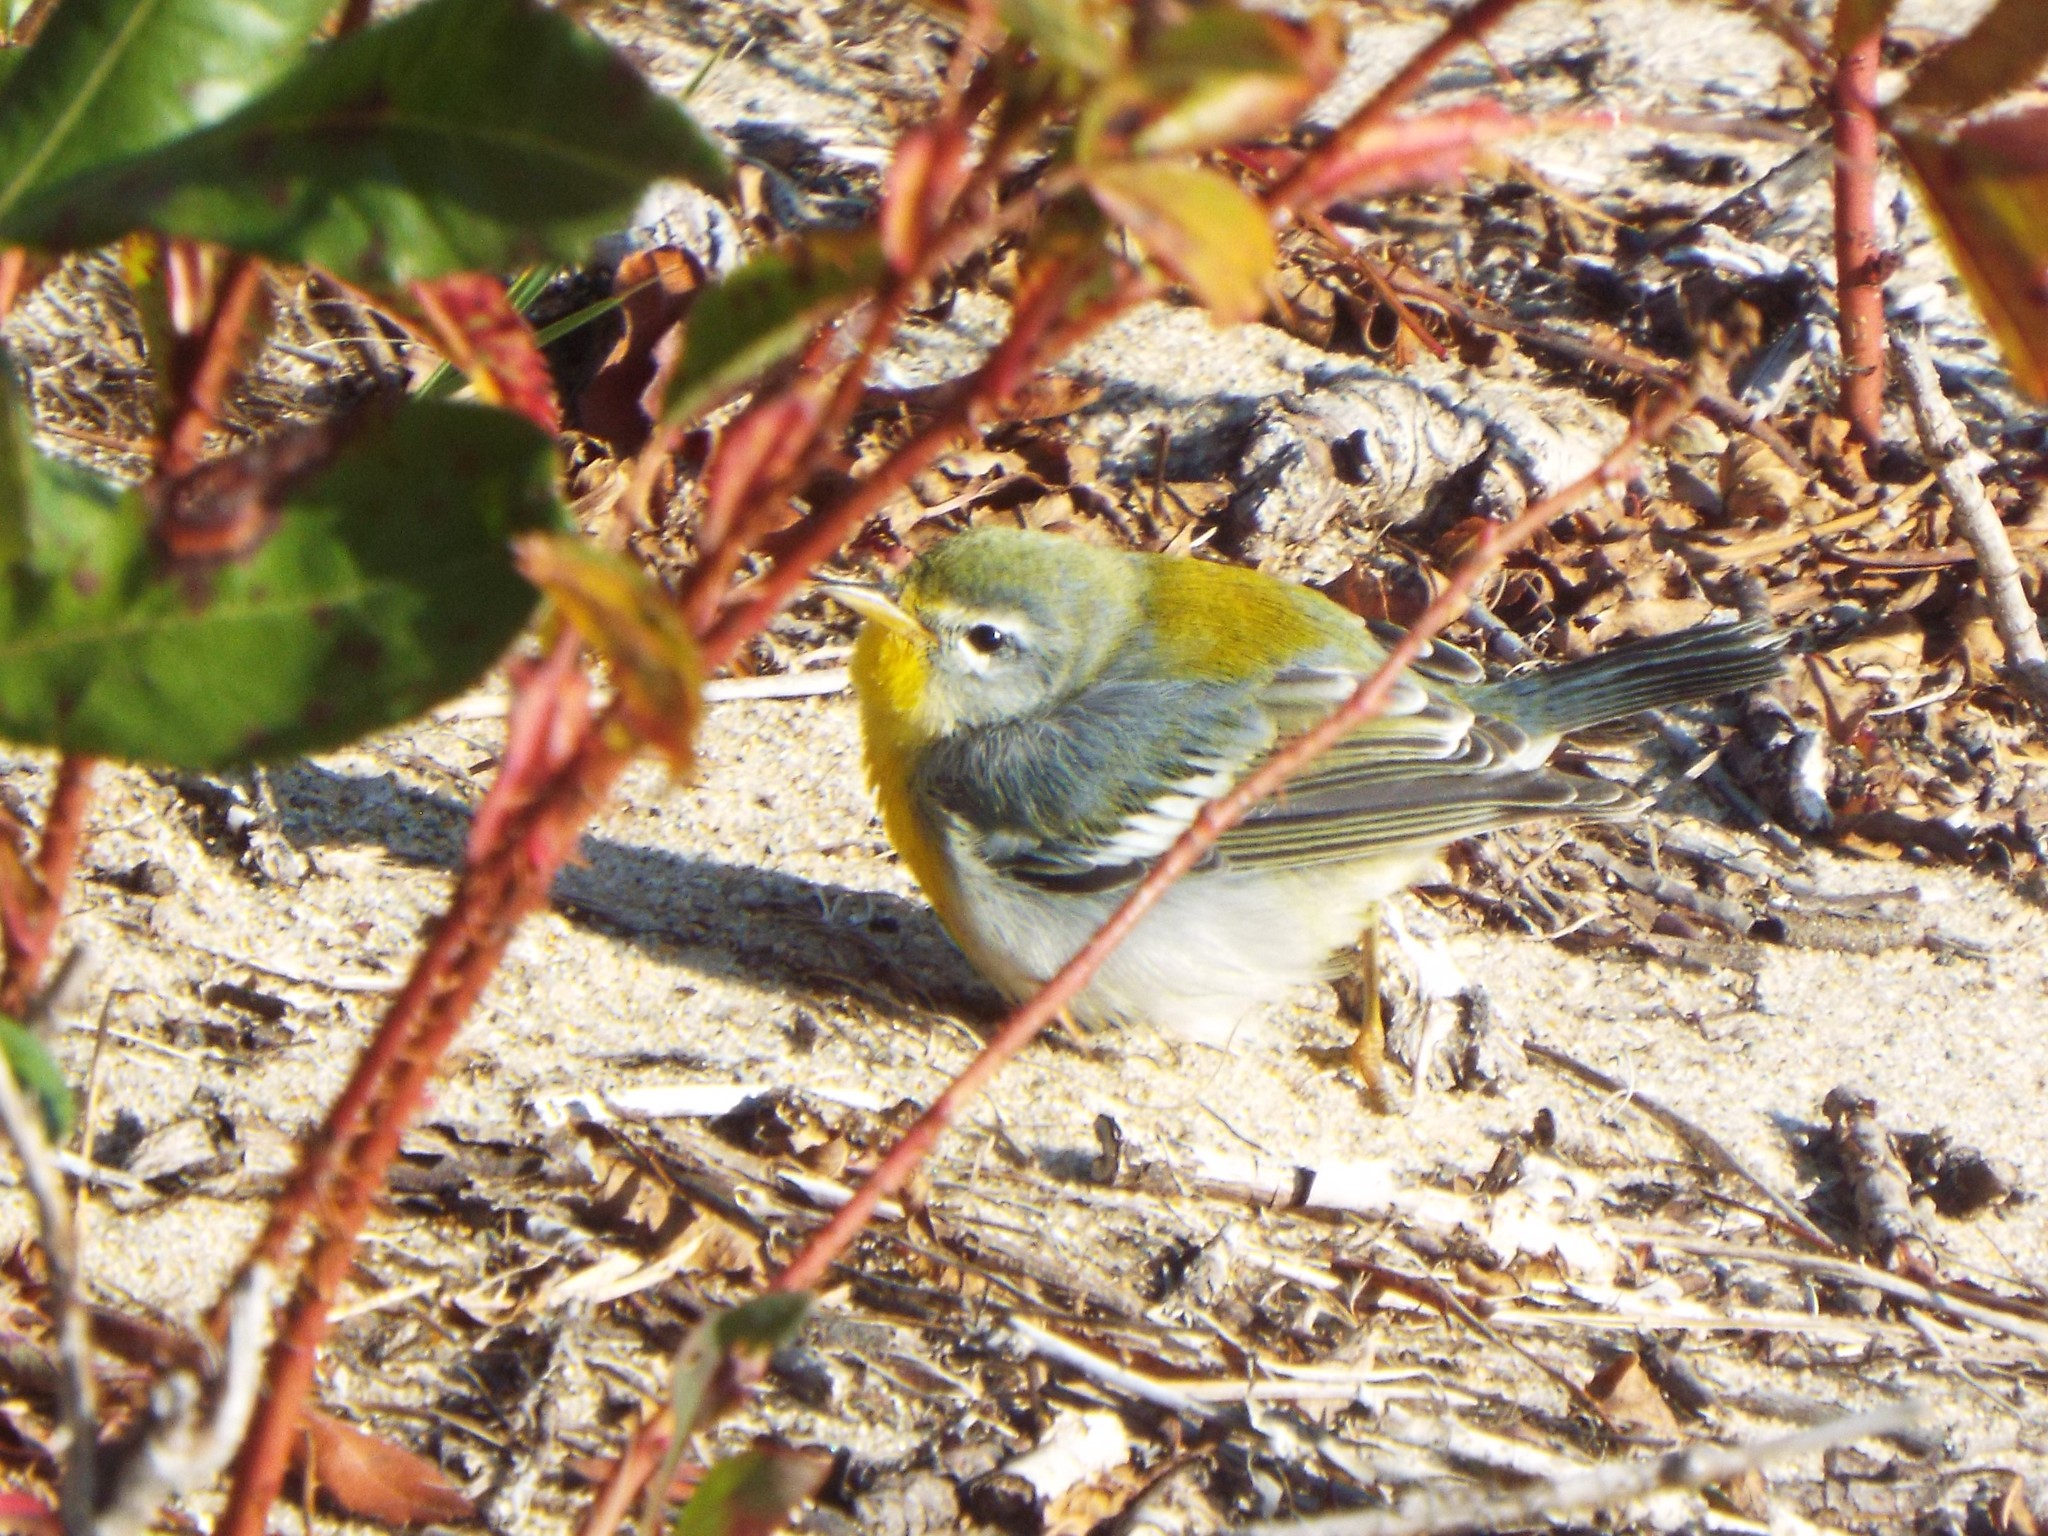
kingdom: Animalia
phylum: Chordata
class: Aves
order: Passeriformes
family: Parulidae
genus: Setophaga
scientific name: Setophaga americana
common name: Northern parula
